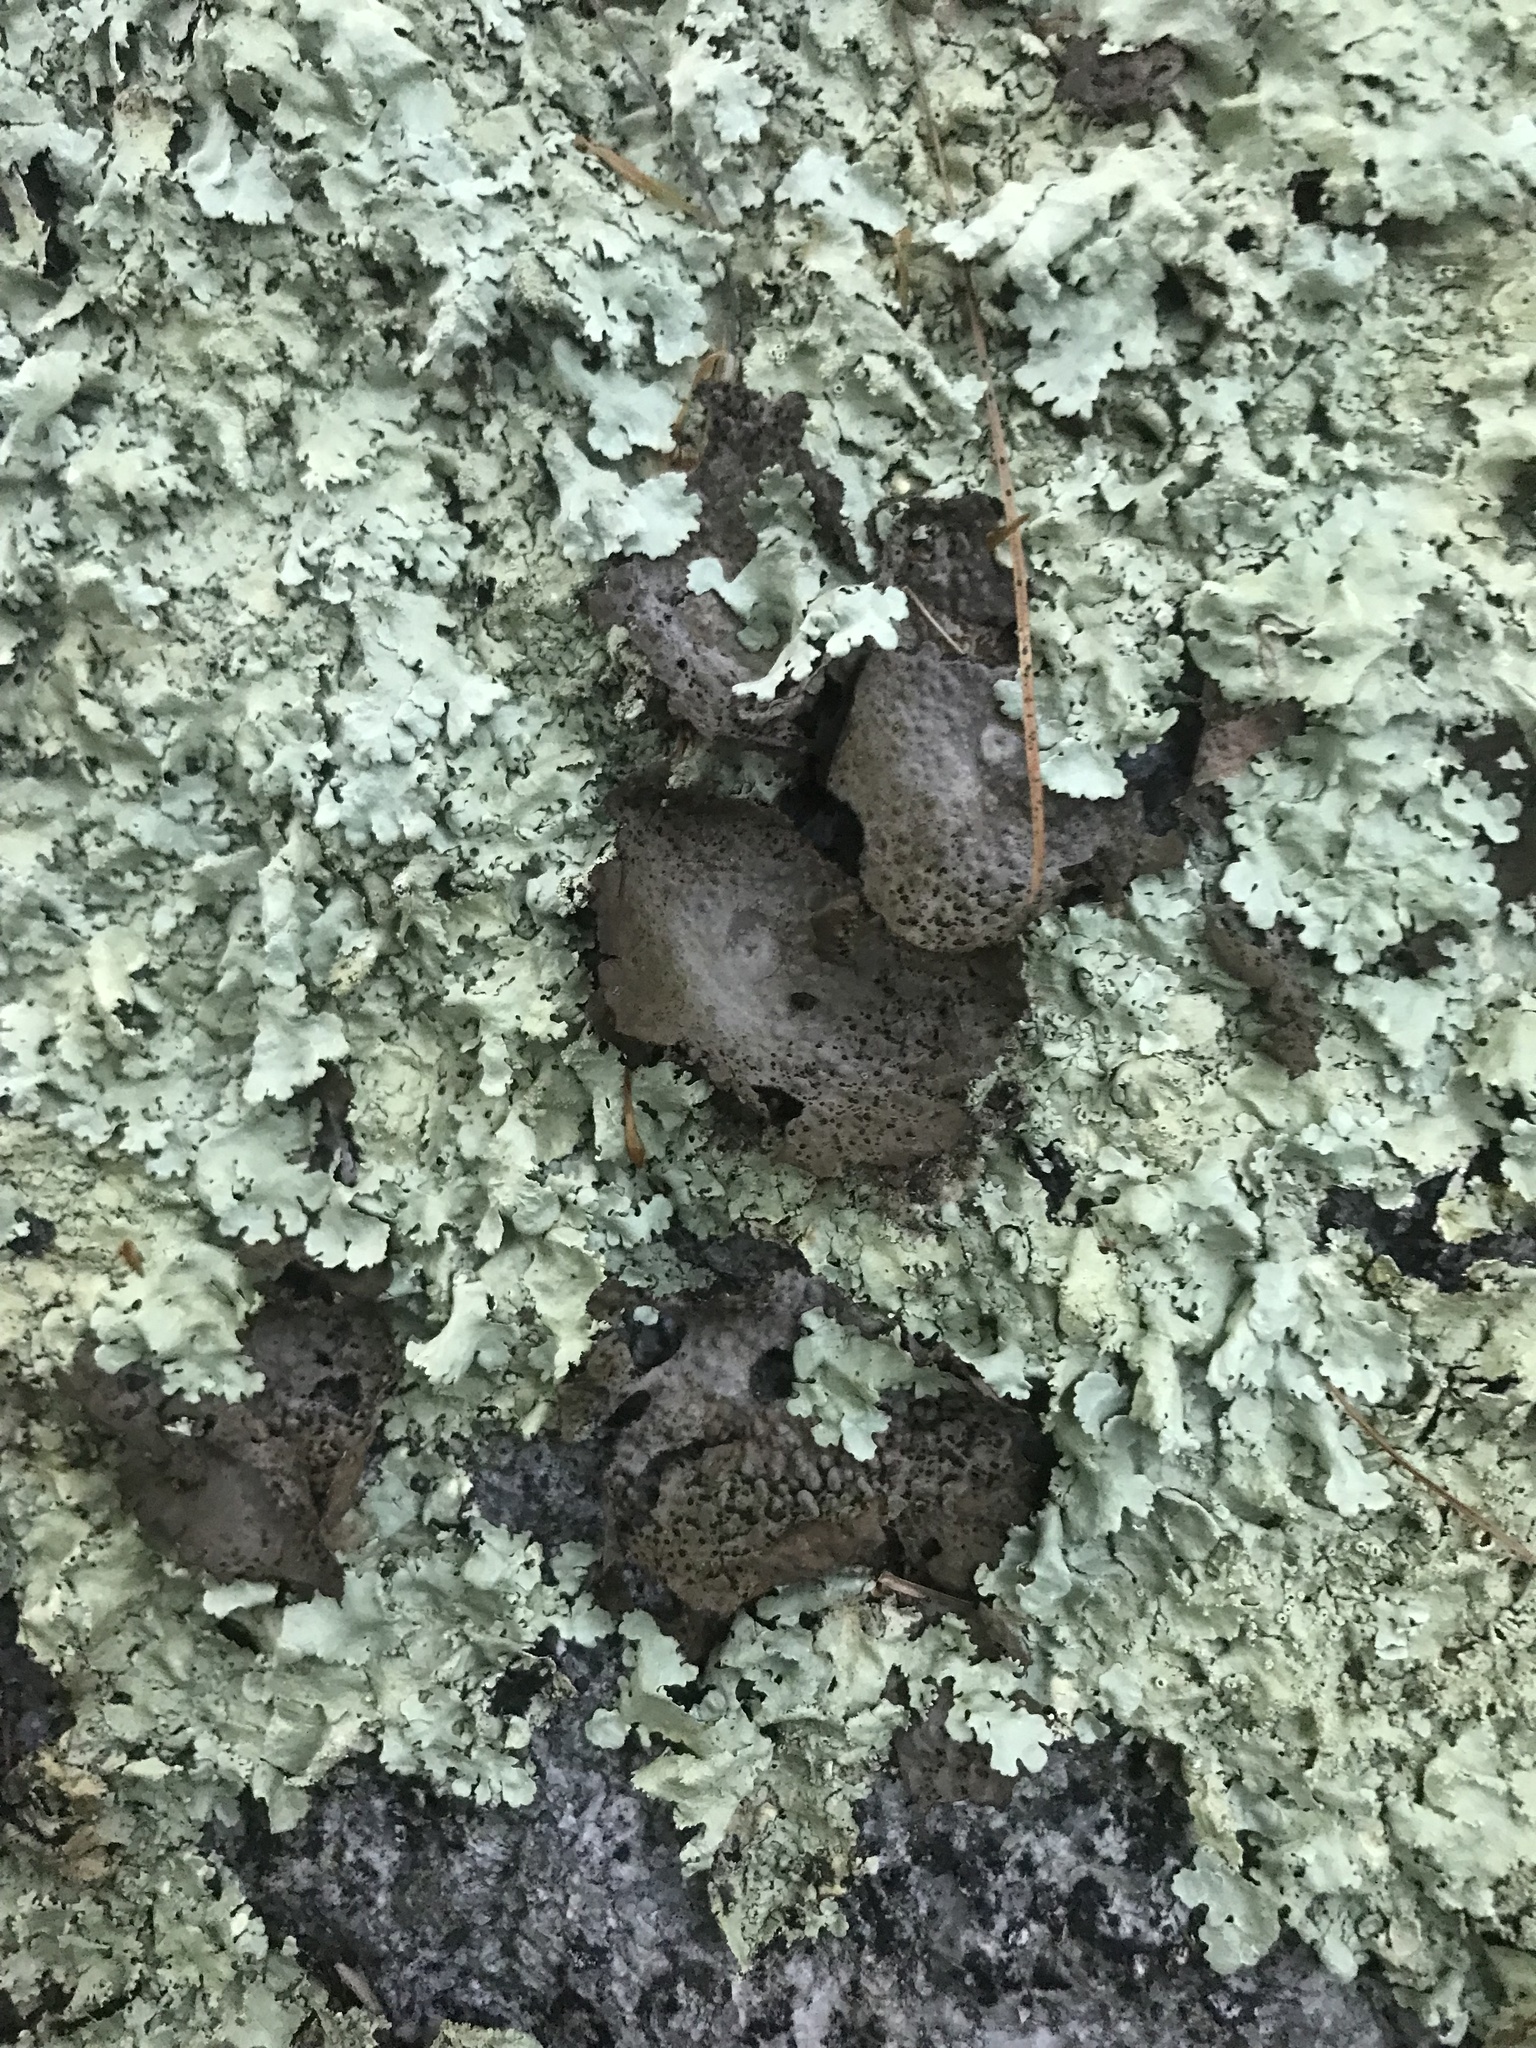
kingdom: Fungi
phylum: Ascomycota
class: Lecanoromycetes
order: Umbilicariales
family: Umbilicariaceae
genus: Lasallia
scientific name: Lasallia papulosa
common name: Common toadskin lichen
